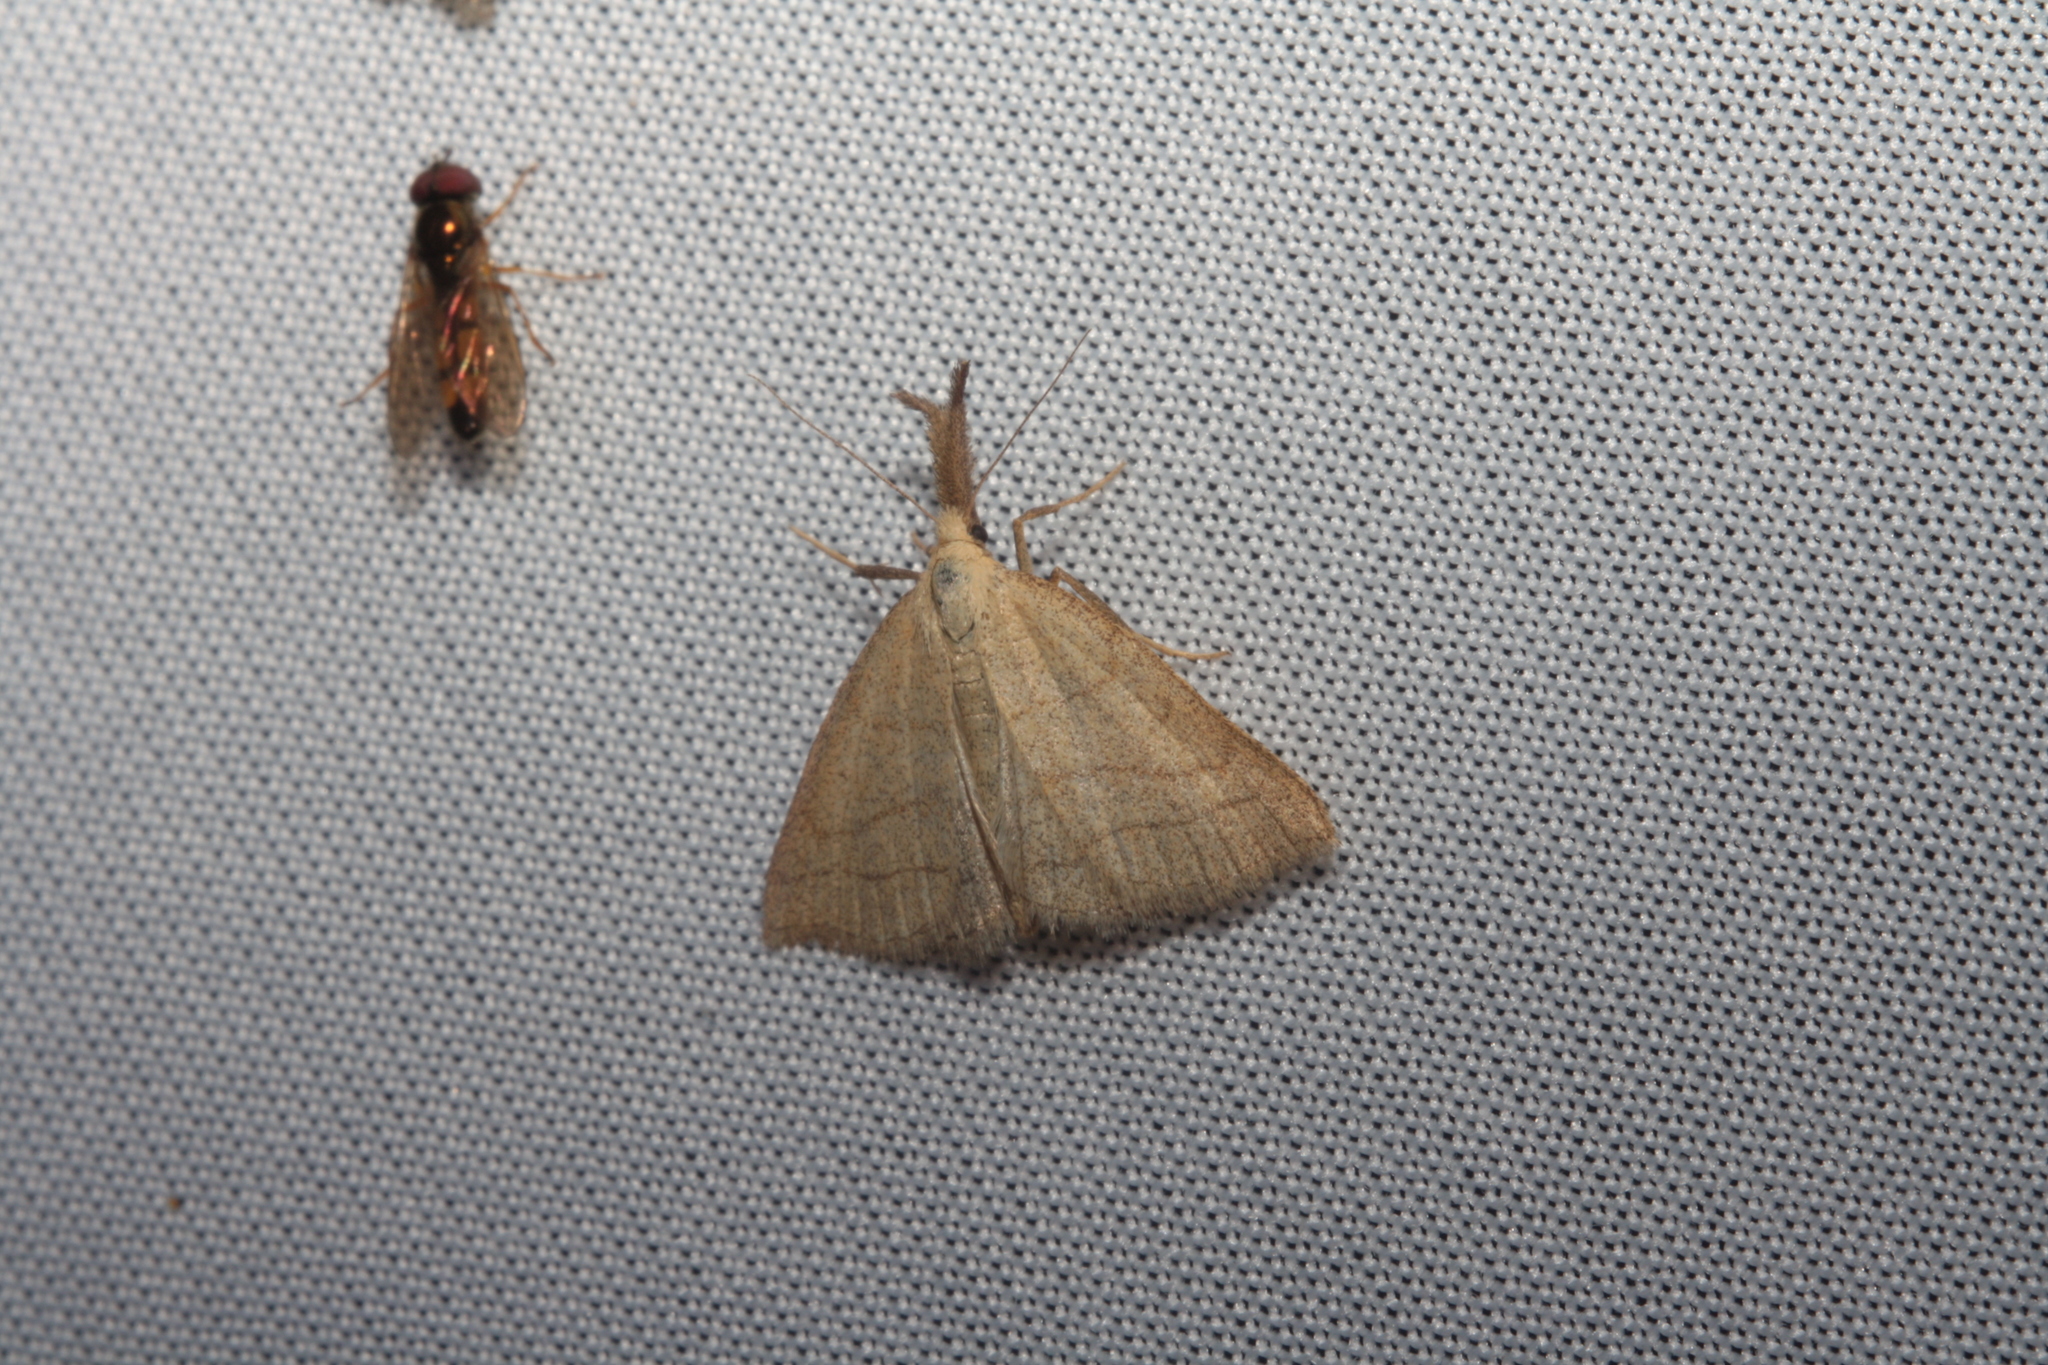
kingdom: Animalia
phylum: Arthropoda
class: Insecta
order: Lepidoptera
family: Erebidae
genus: Polypogon
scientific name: Polypogon tentacularia
